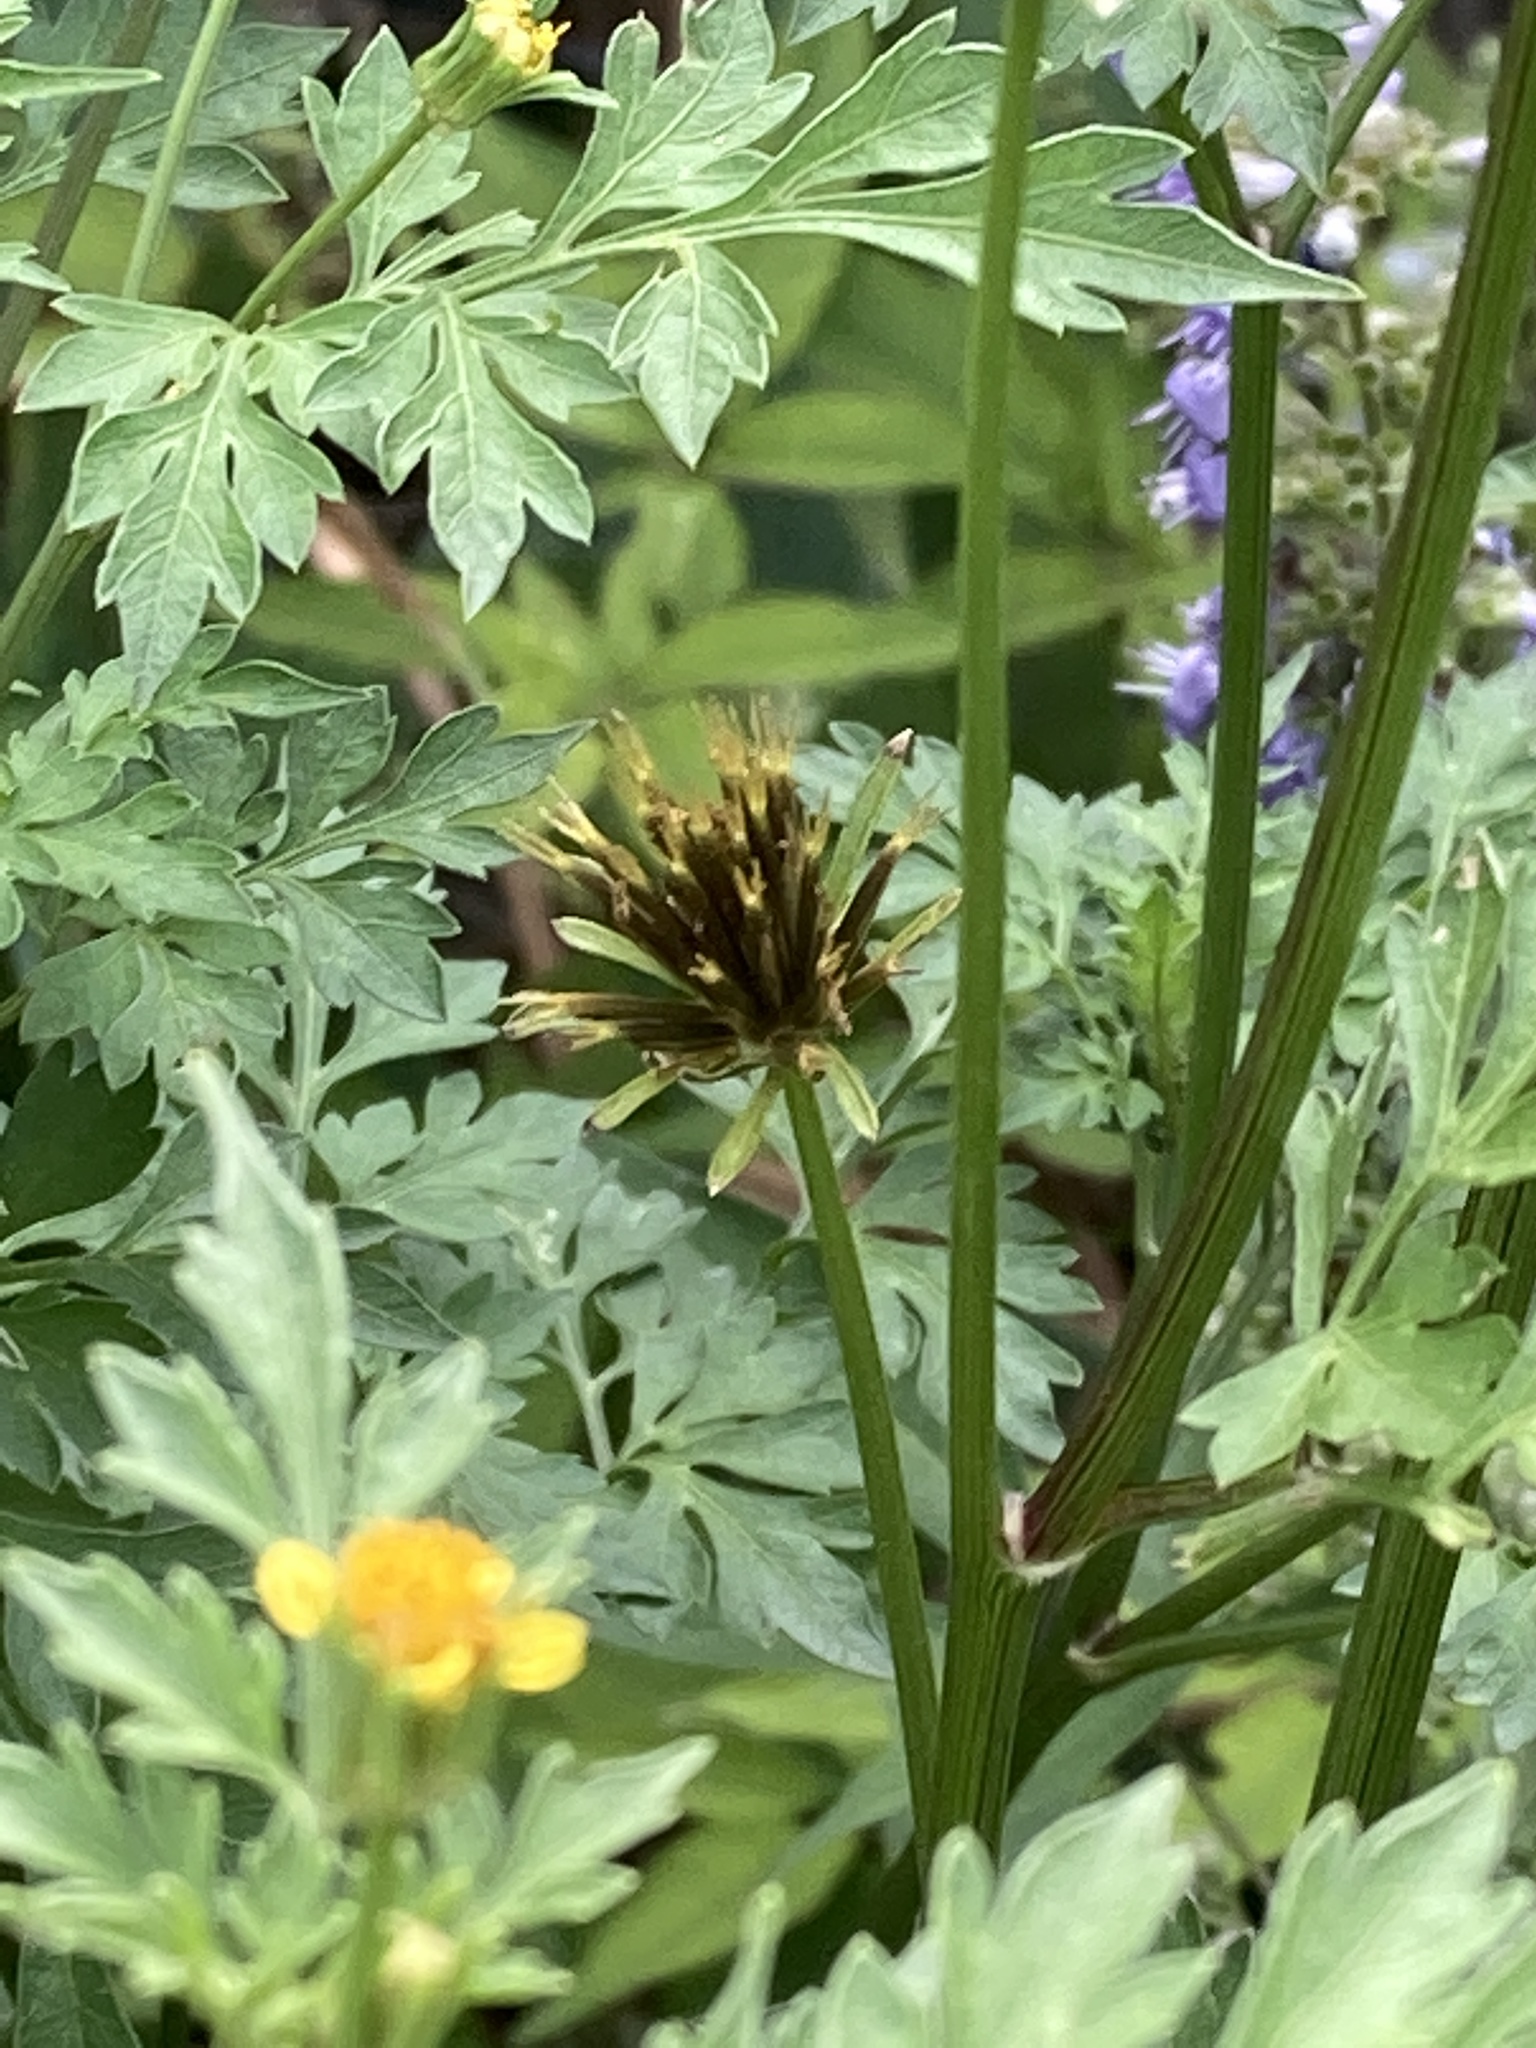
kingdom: Plantae
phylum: Tracheophyta
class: Magnoliopsida
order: Asterales
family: Asteraceae
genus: Bidens
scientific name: Bidens bipinnata
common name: Spanish-needles
